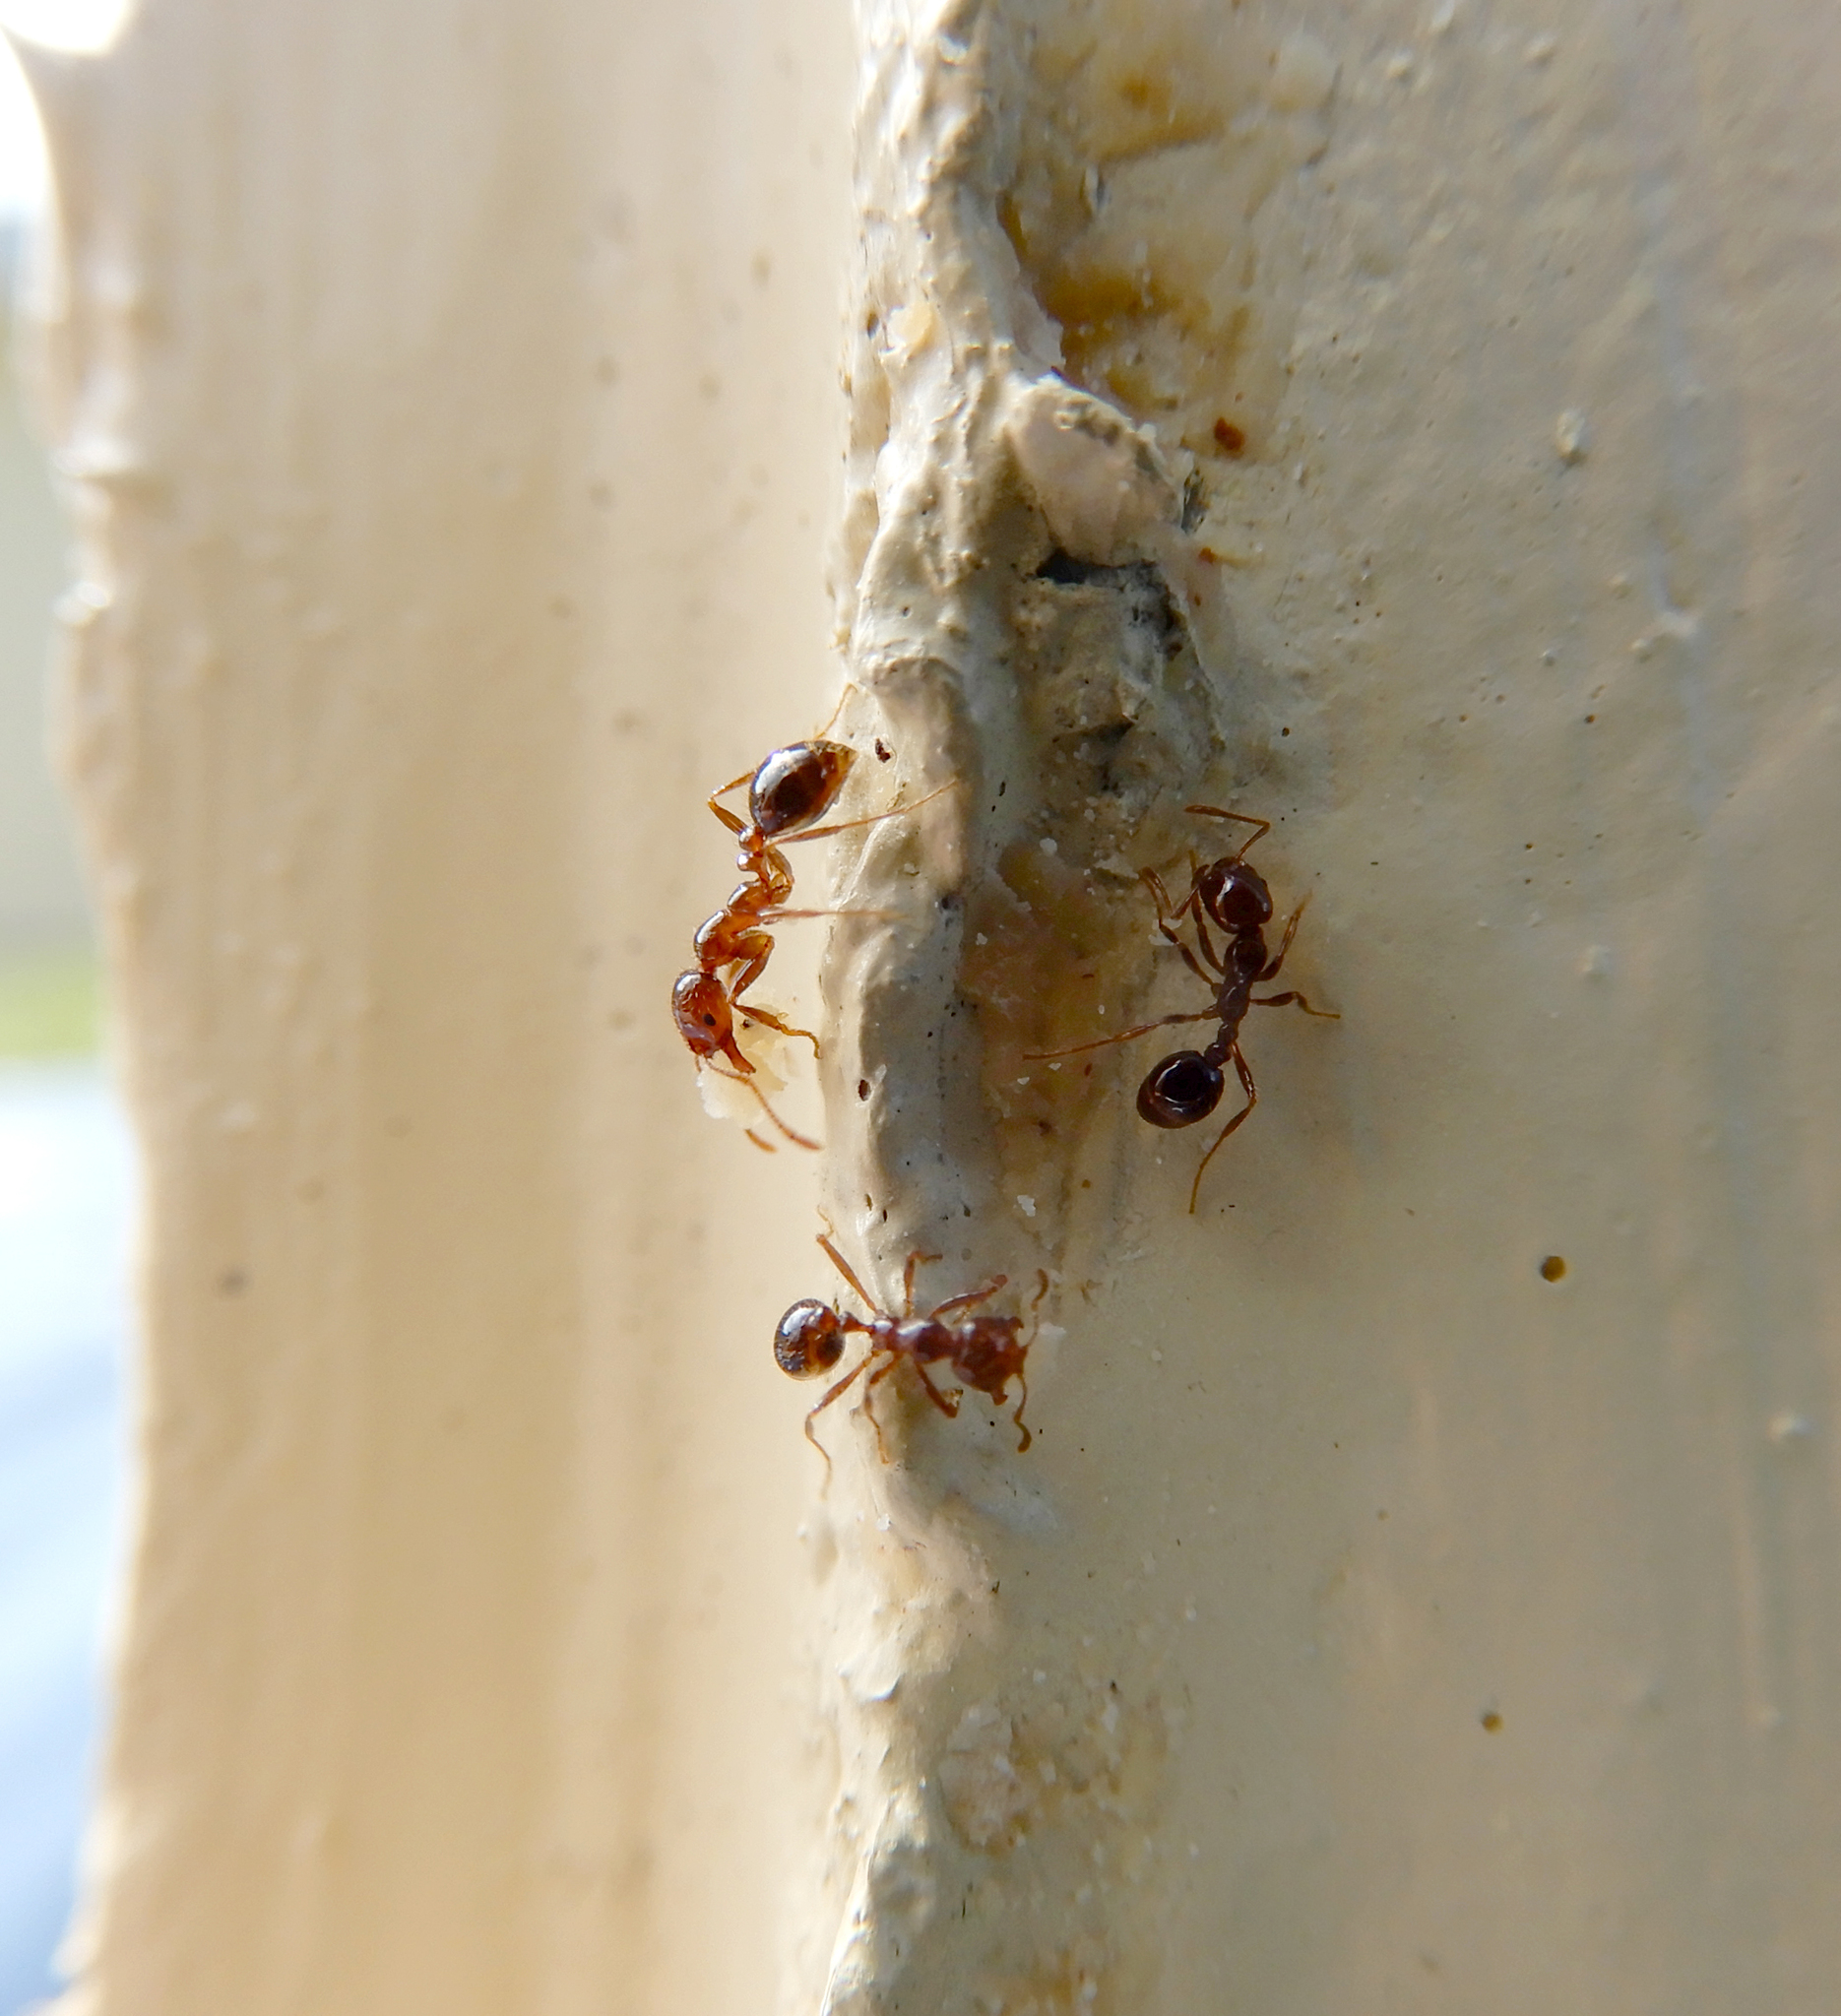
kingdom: Animalia
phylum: Arthropoda
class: Insecta
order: Hymenoptera
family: Formicidae
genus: Solenopsis
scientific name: Solenopsis invicta
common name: Red imported fire ant
